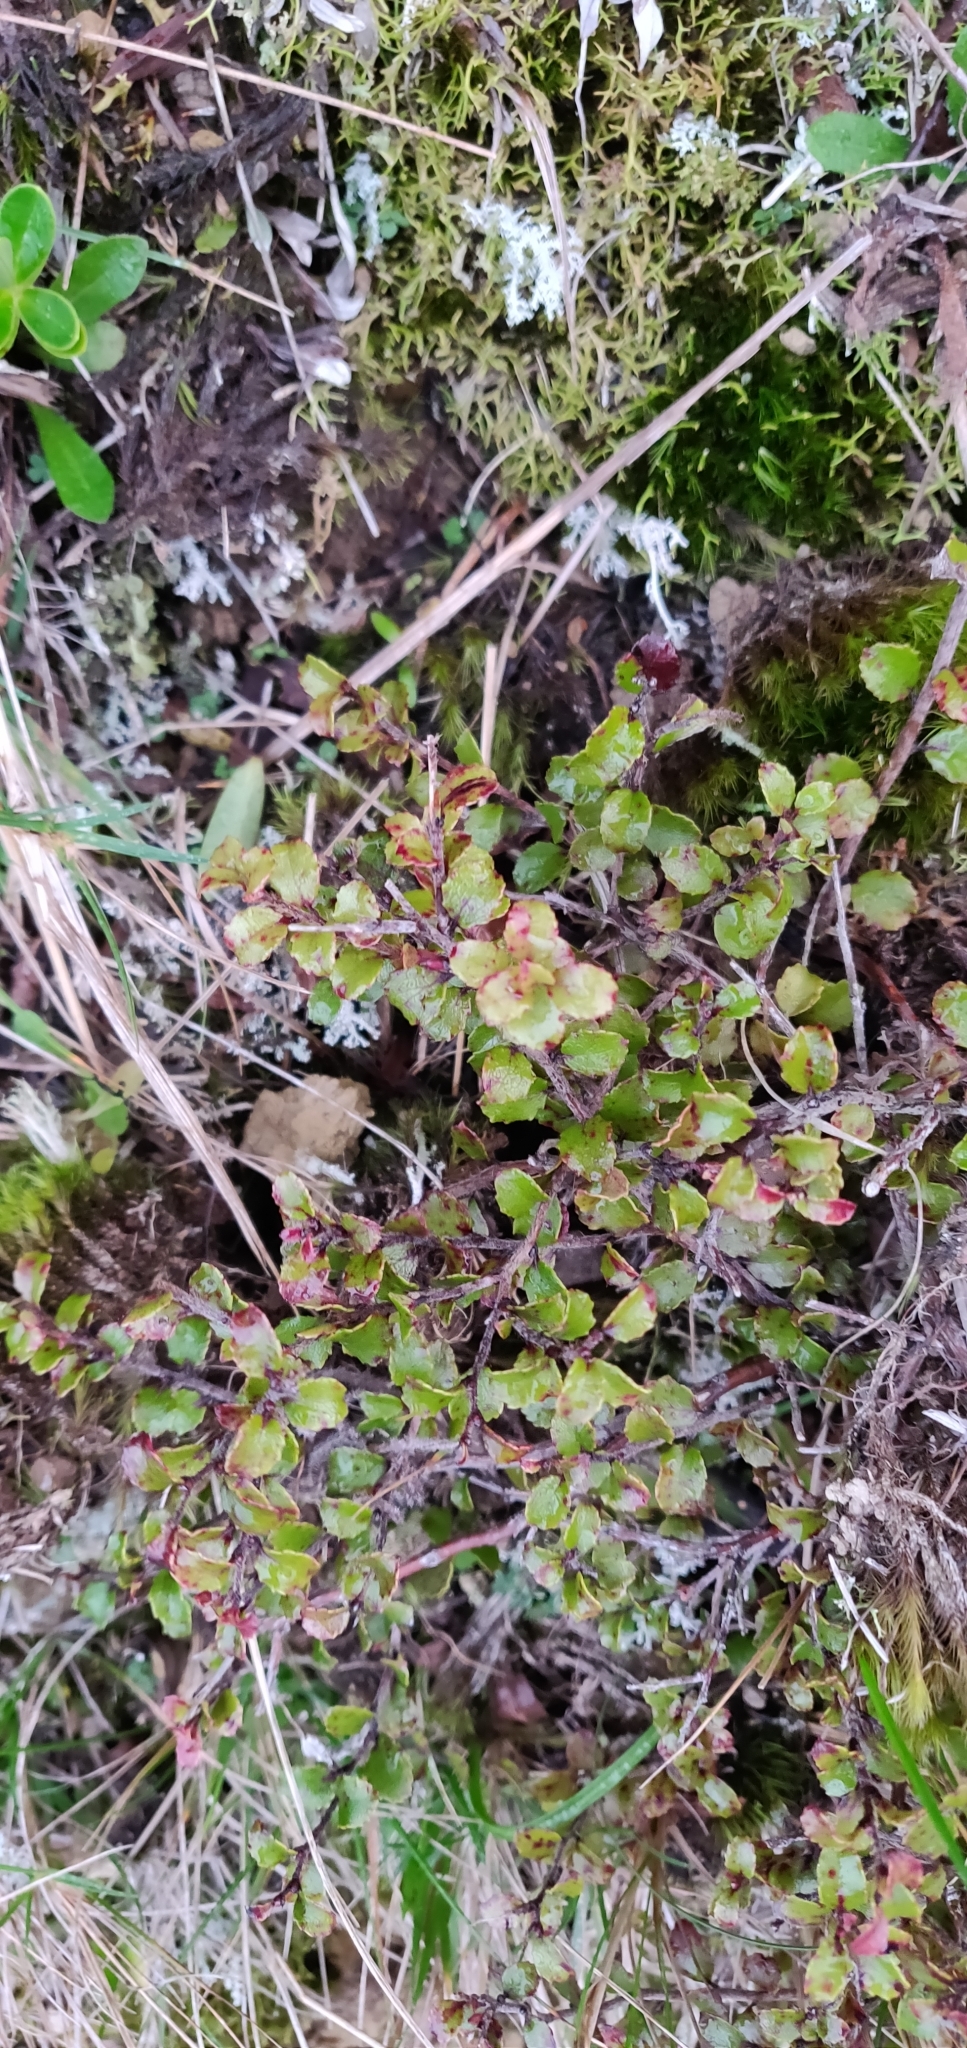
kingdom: Plantae
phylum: Tracheophyta
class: Magnoliopsida
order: Ericales
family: Ericaceae
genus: Gaultheria
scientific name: Gaultheria antipoda
